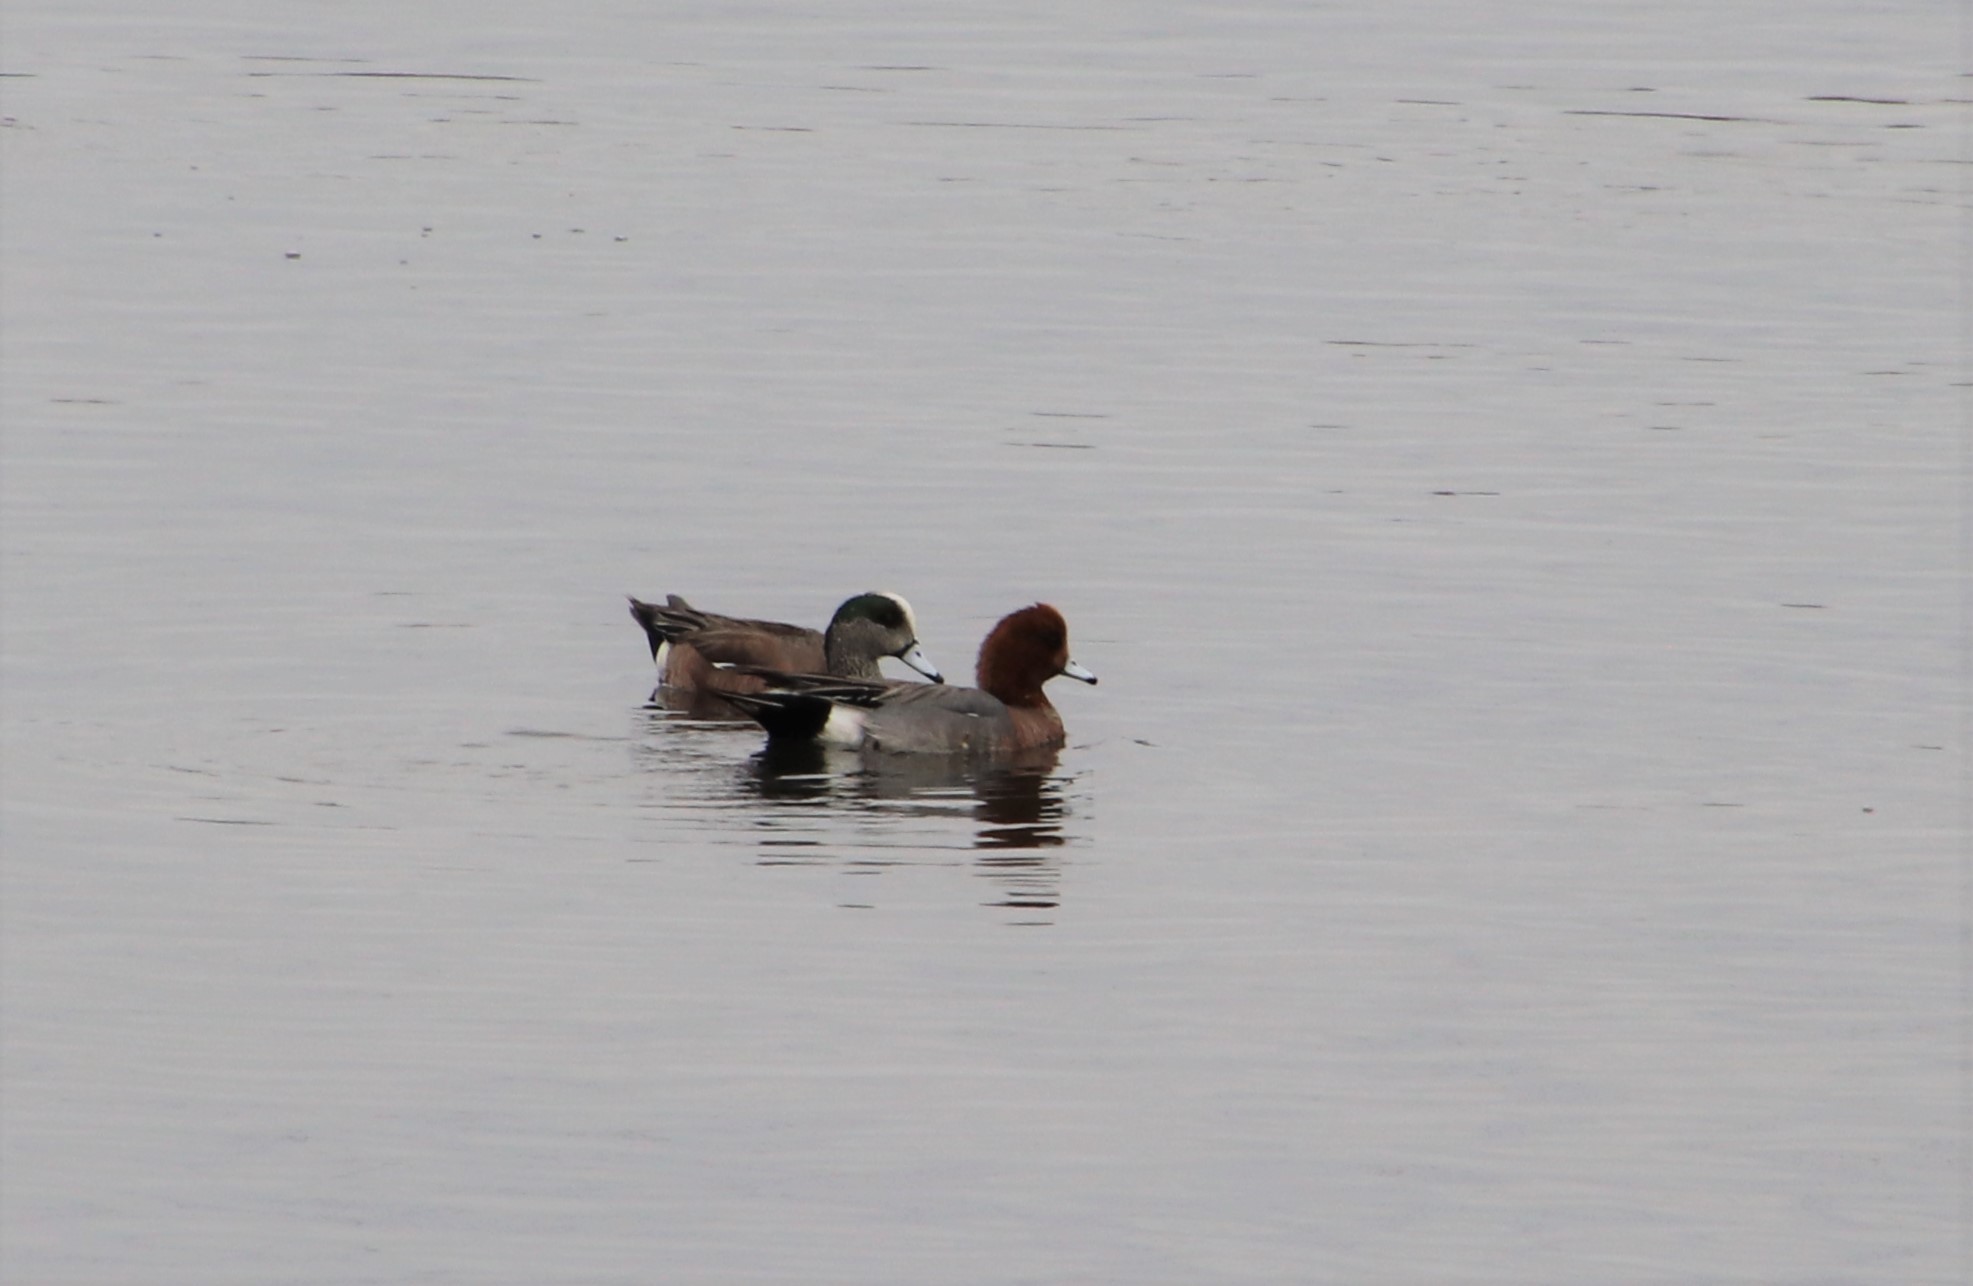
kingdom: Animalia
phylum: Chordata
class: Aves
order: Anseriformes
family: Anatidae
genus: Mareca
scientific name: Mareca penelope
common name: Eurasian wigeon
